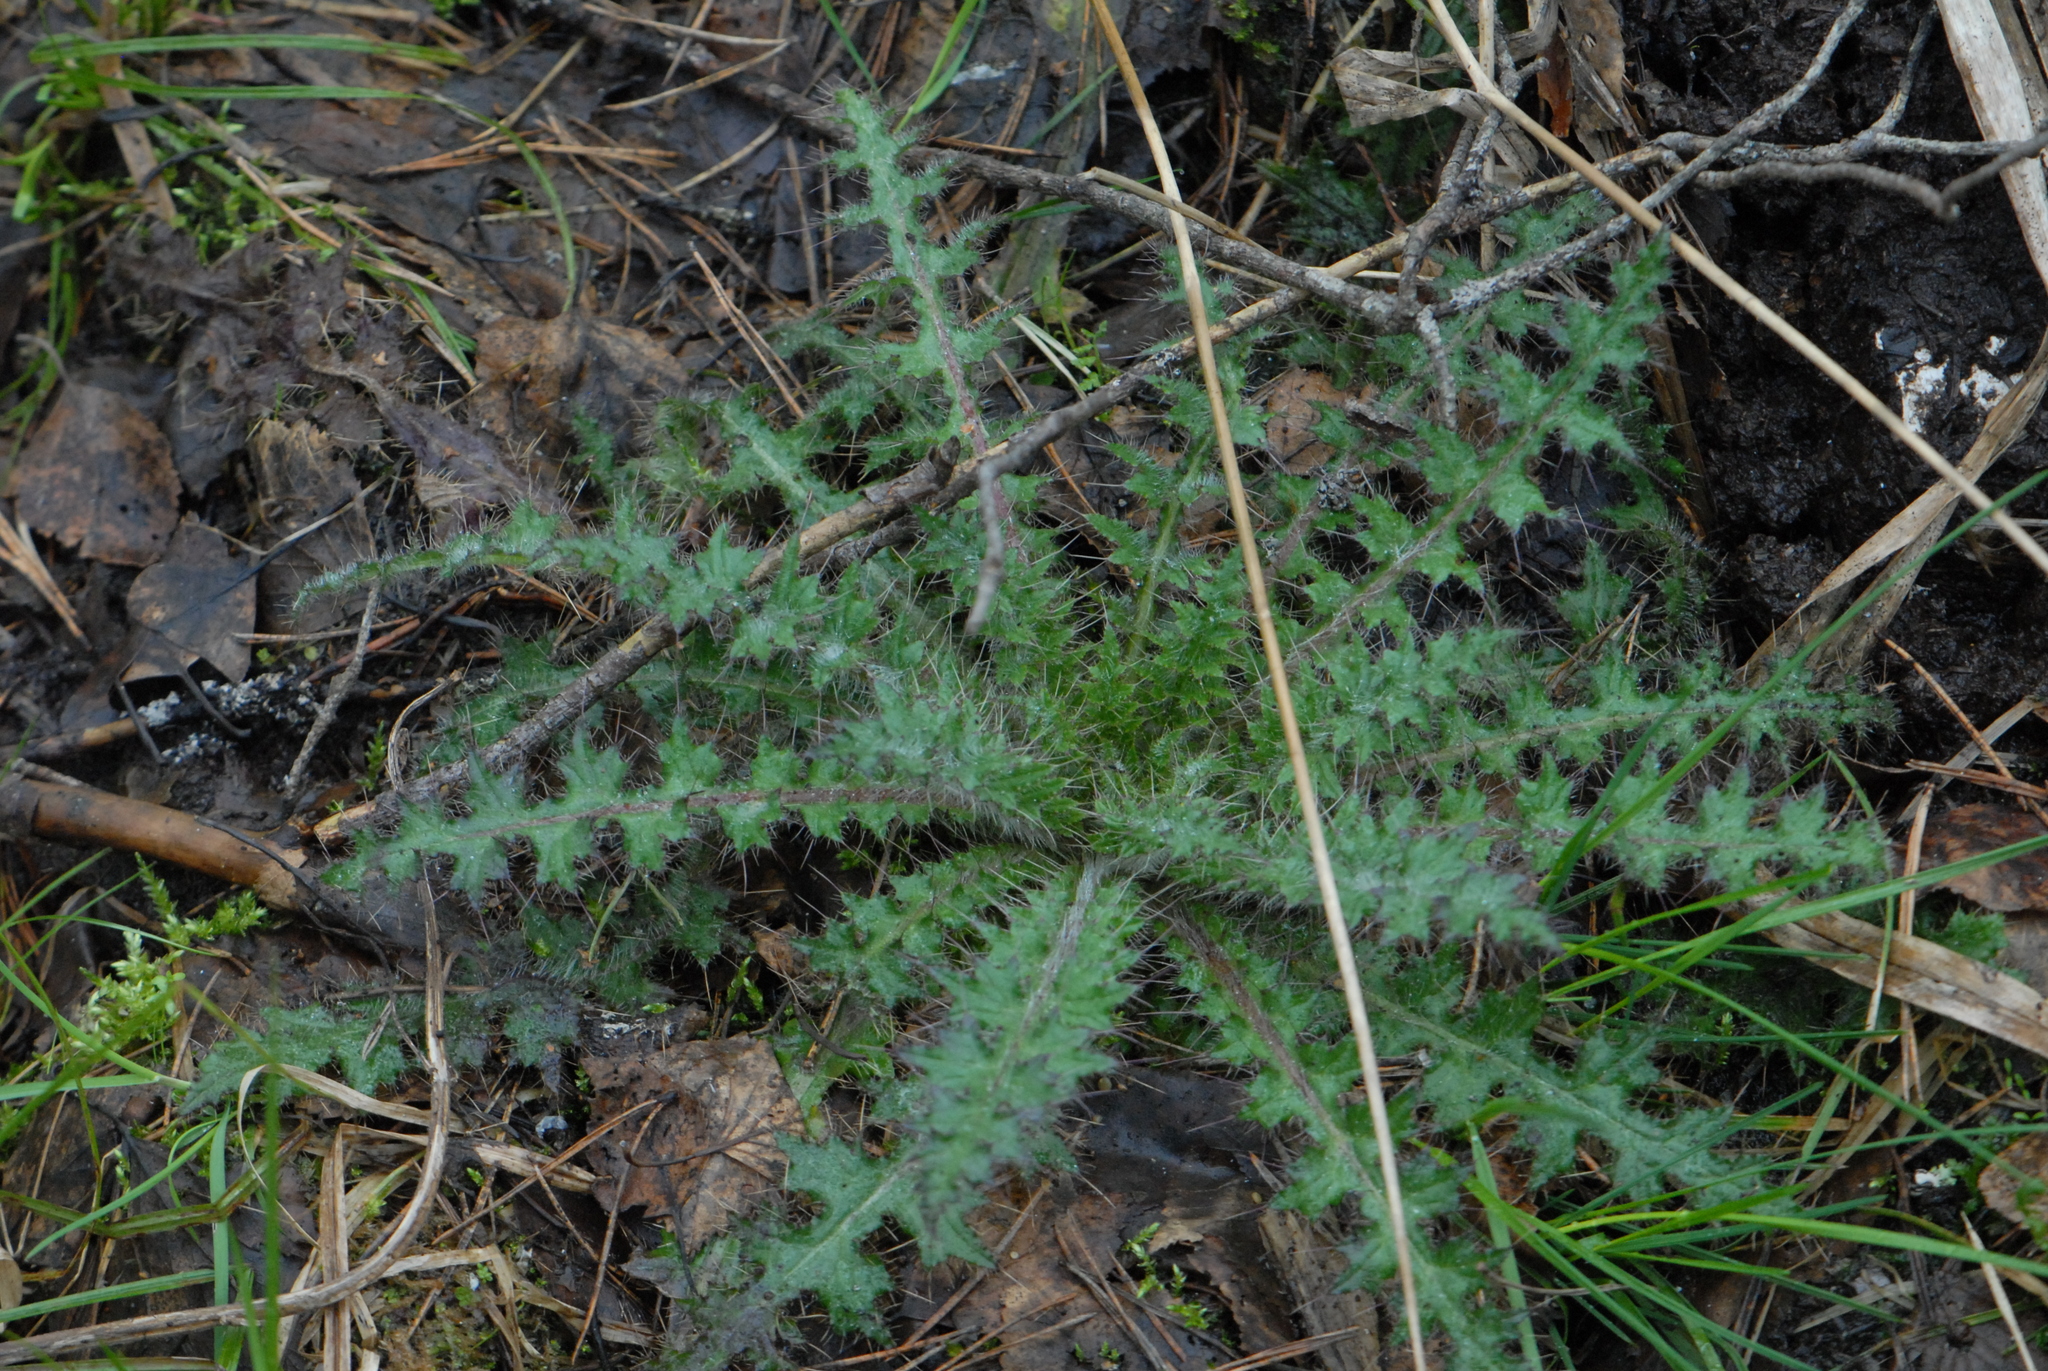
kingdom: Plantae
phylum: Tracheophyta
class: Magnoliopsida
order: Asterales
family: Asteraceae
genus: Cirsium
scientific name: Cirsium palustre
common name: Marsh thistle
